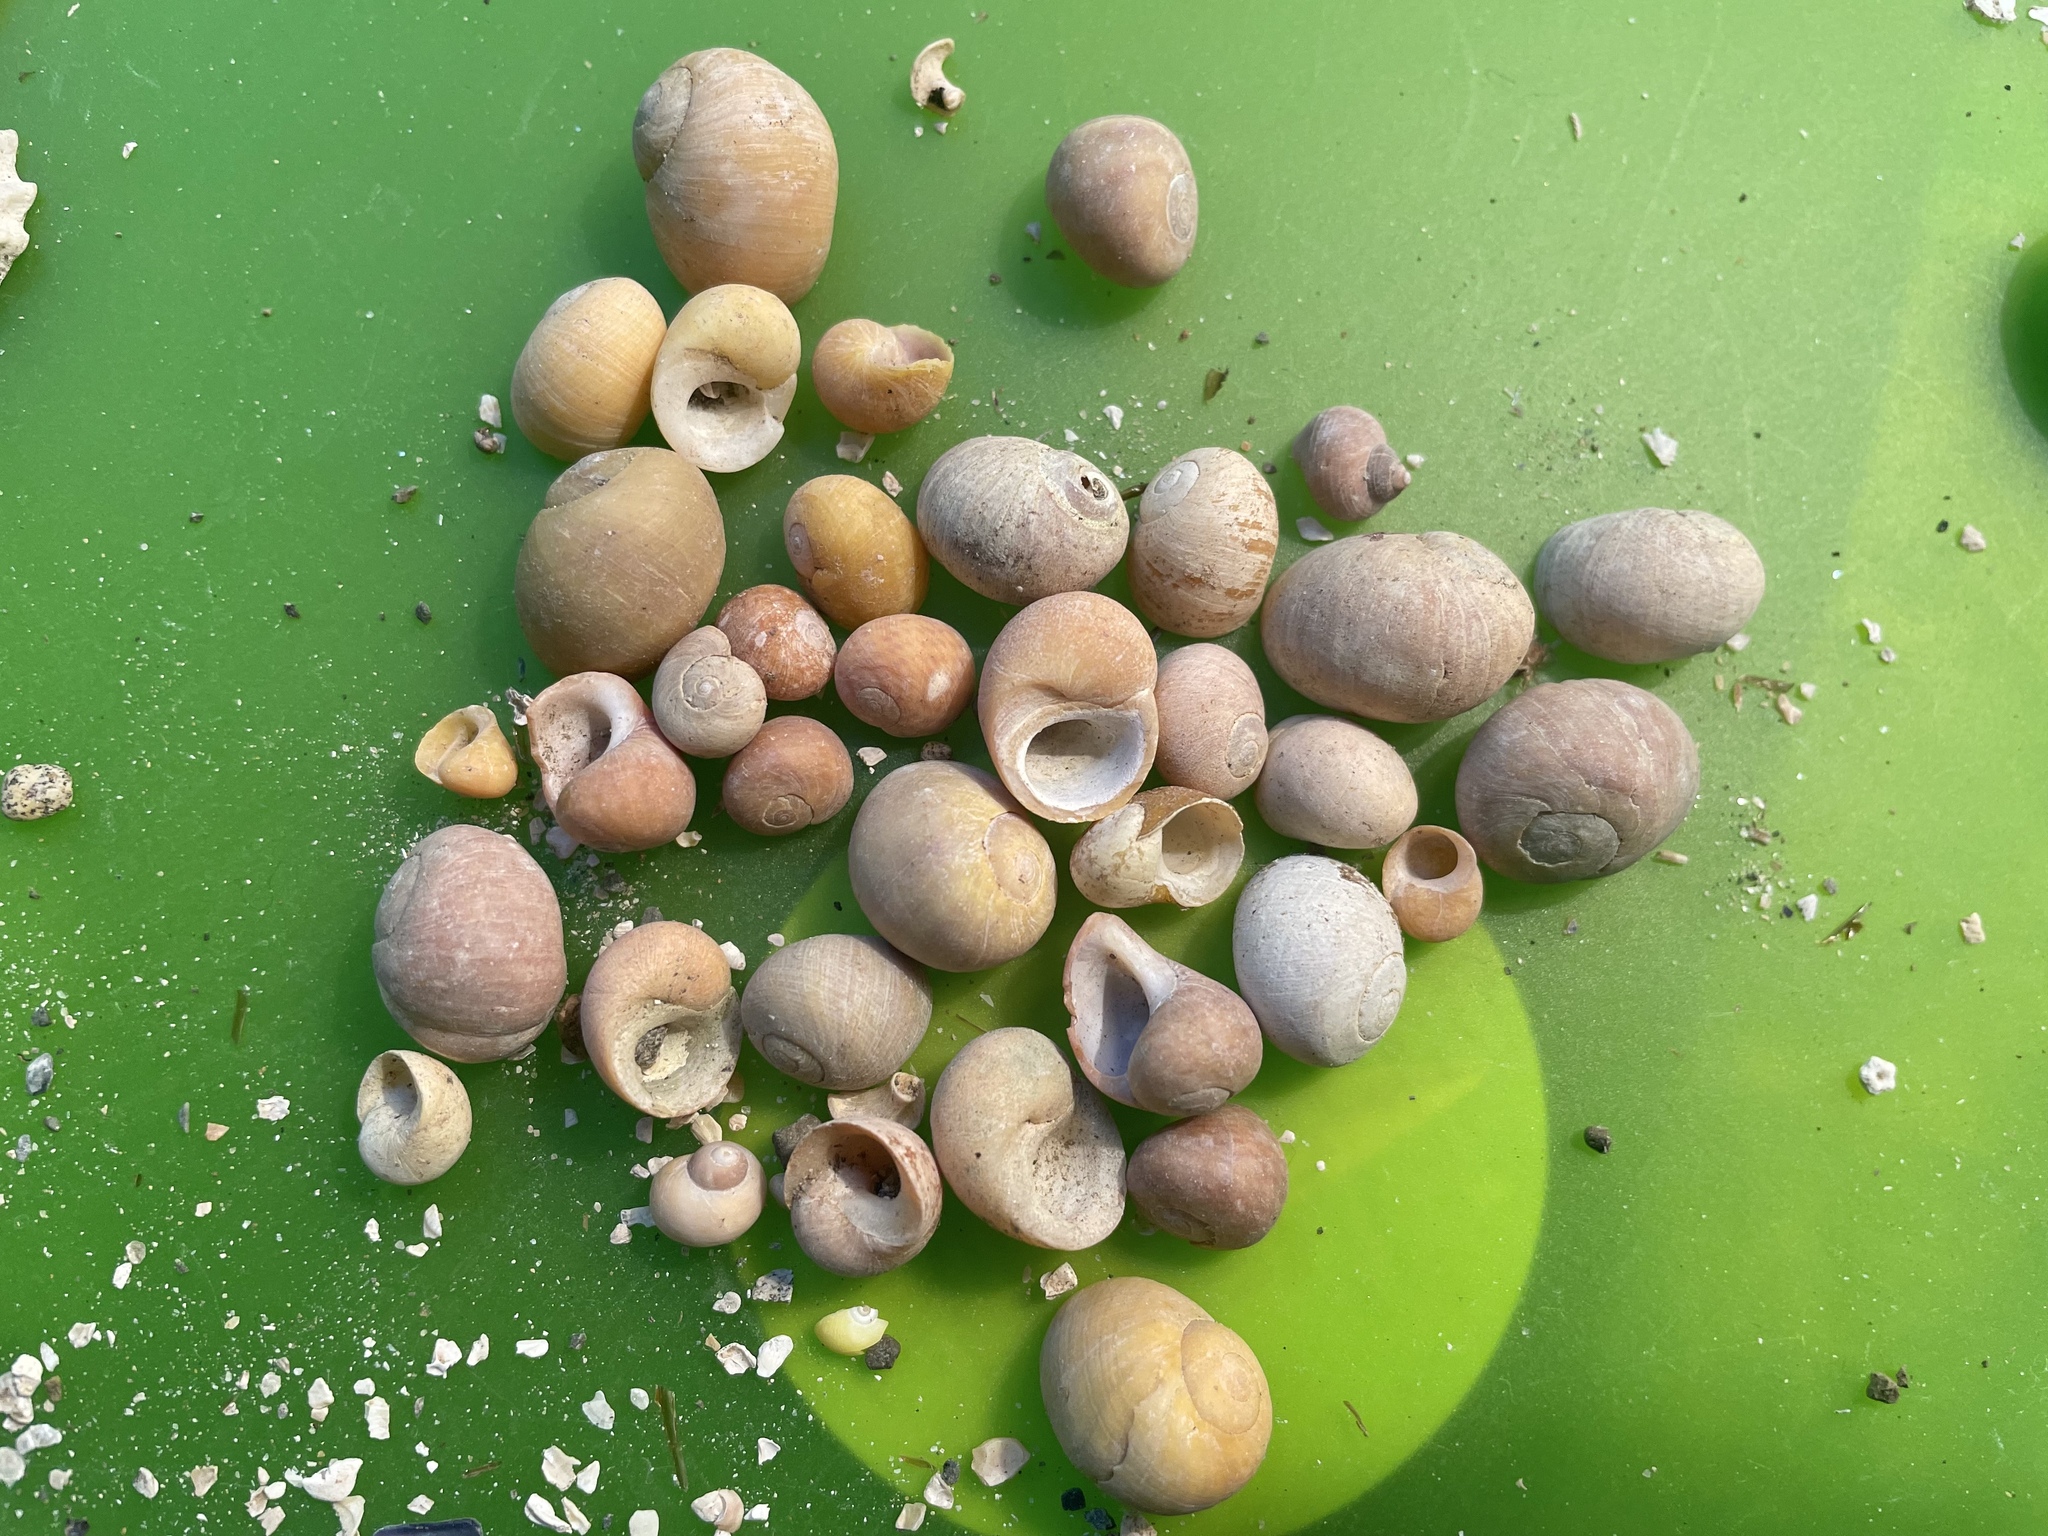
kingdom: Animalia
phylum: Mollusca
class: Gastropoda
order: Littorinimorpha
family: Littorinidae
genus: Littorina
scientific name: Littorina
